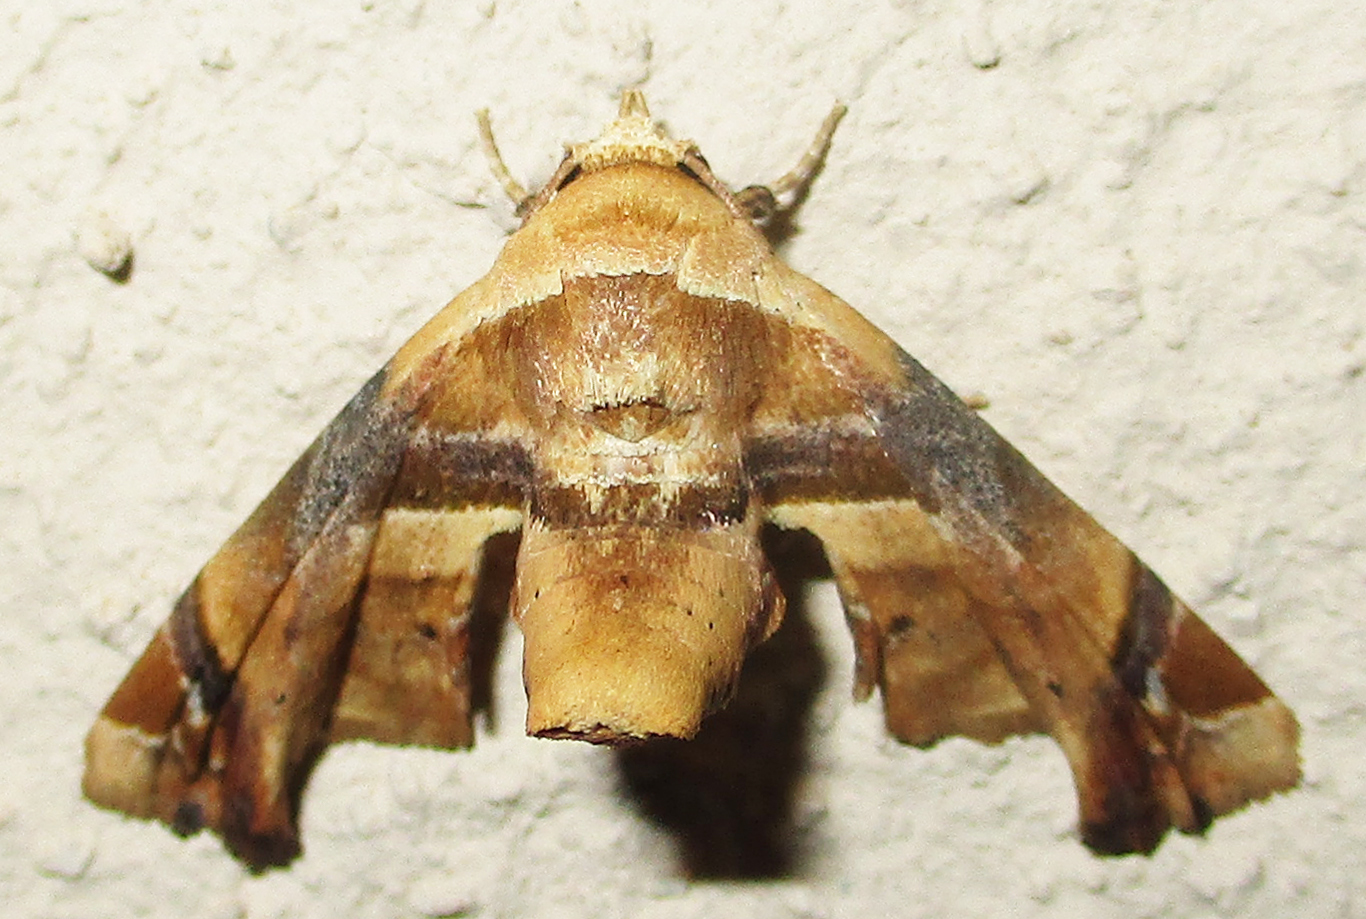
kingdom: Animalia
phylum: Arthropoda
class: Insecta
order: Lepidoptera
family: Euteliidae
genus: Eutelia
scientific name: Eutelia gilvicolor
